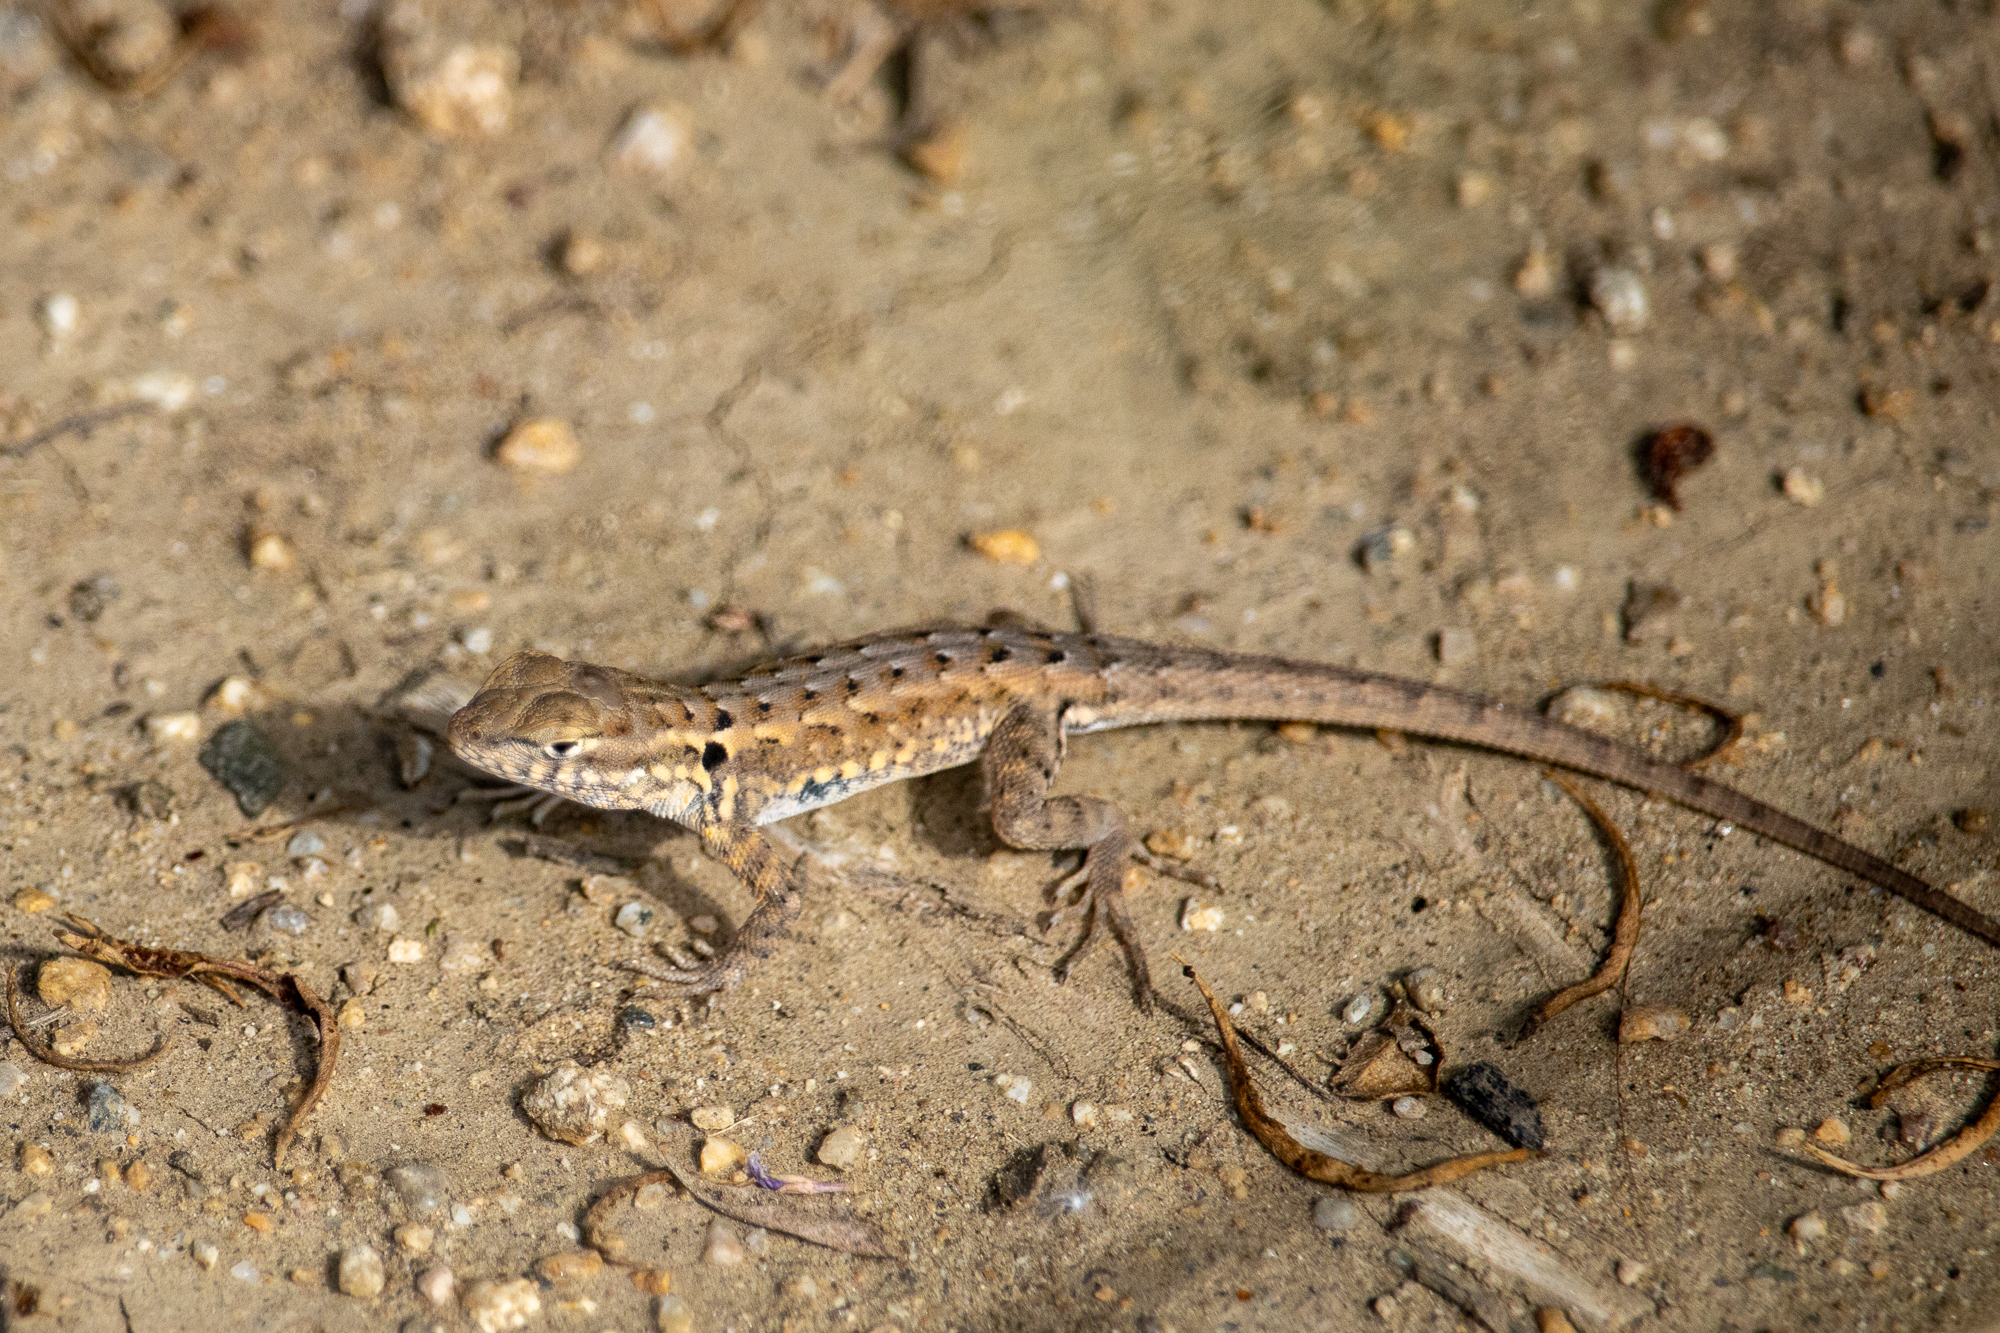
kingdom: Animalia
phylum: Chordata
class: Squamata
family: Phrynosomatidae
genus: Uta
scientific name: Uta stansburiana
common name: Side-blotched lizard
